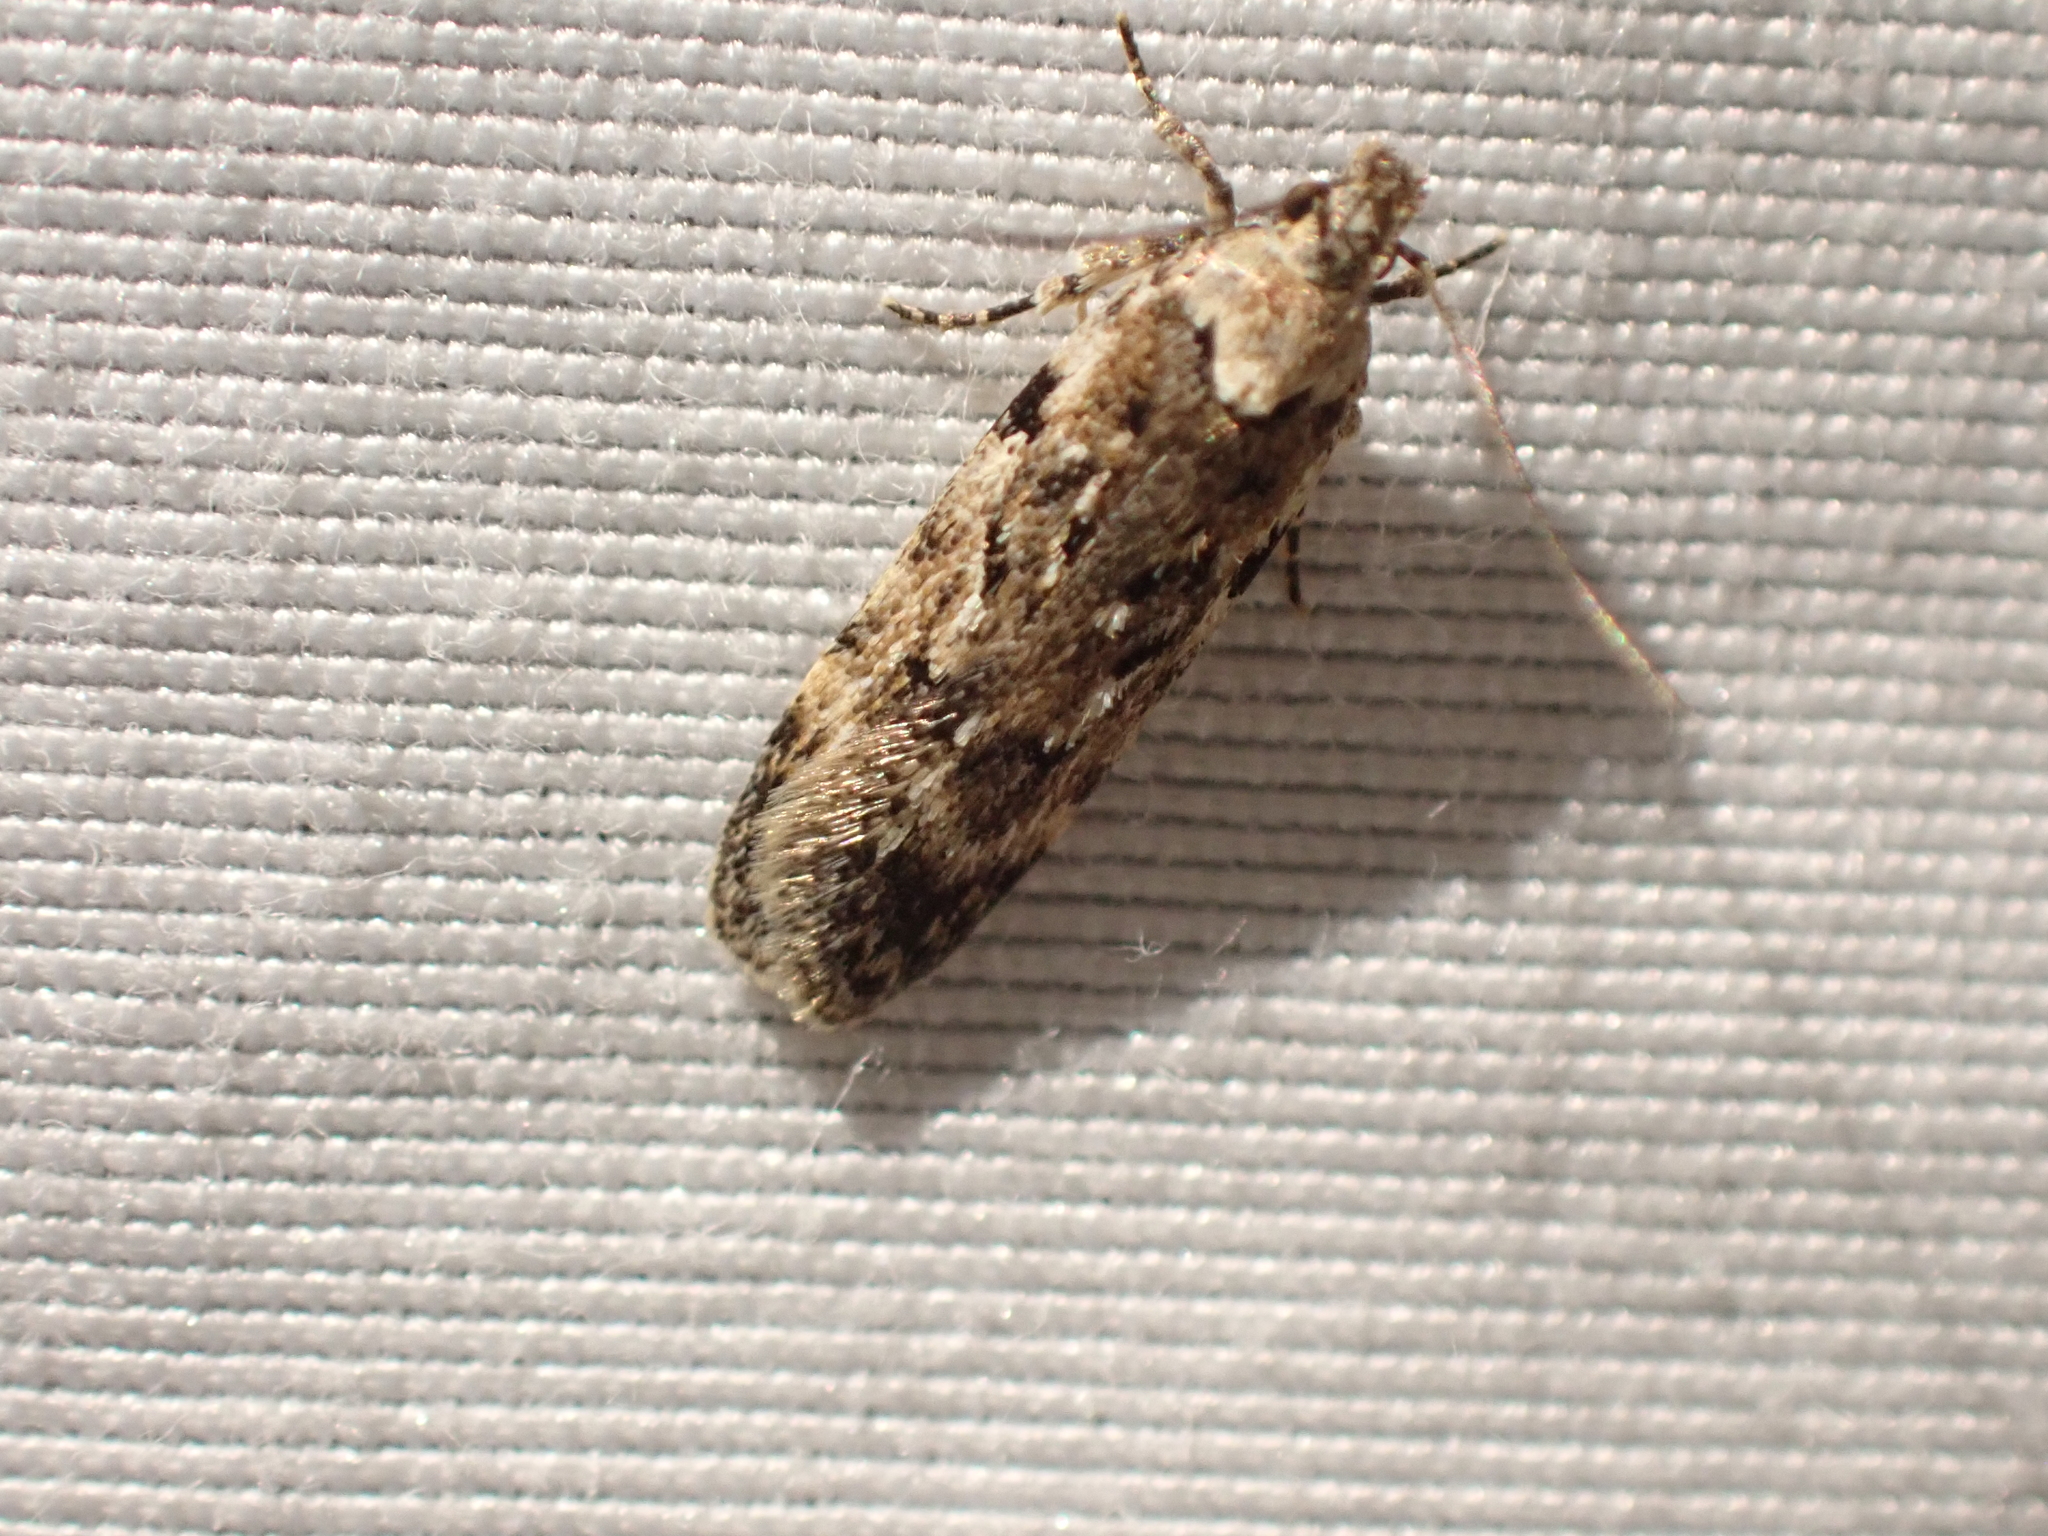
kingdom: Animalia
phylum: Arthropoda
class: Insecta
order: Lepidoptera
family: Gelechiidae
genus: Chionodes
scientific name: Chionodes petalumensis
